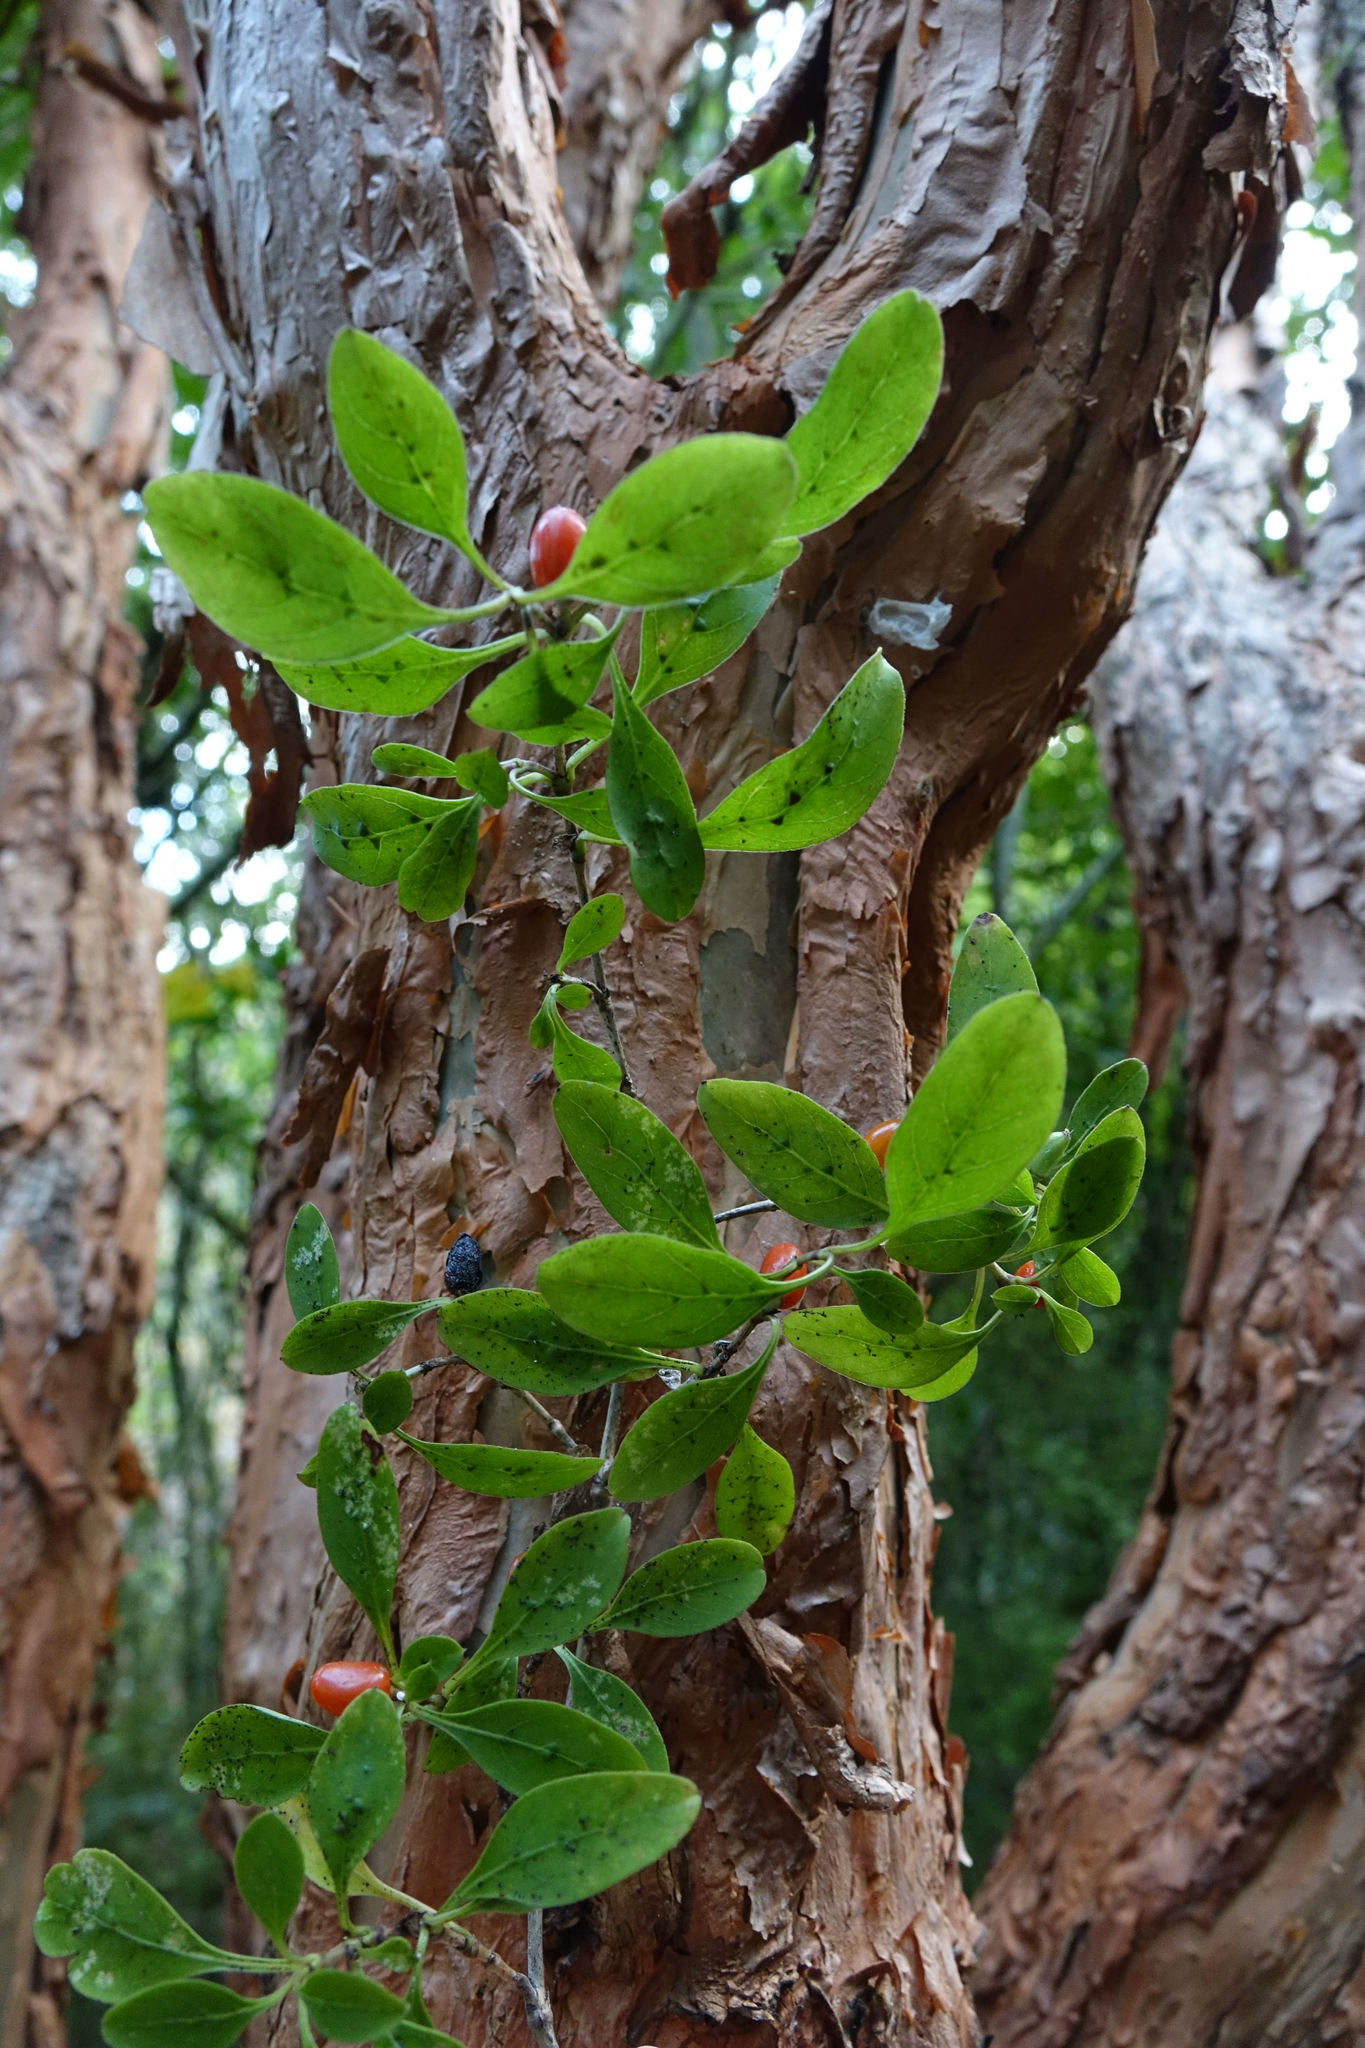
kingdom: Plantae
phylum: Tracheophyta
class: Magnoliopsida
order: Gentianales
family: Rubiaceae
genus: Coprosma
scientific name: Coprosma foetidissima
